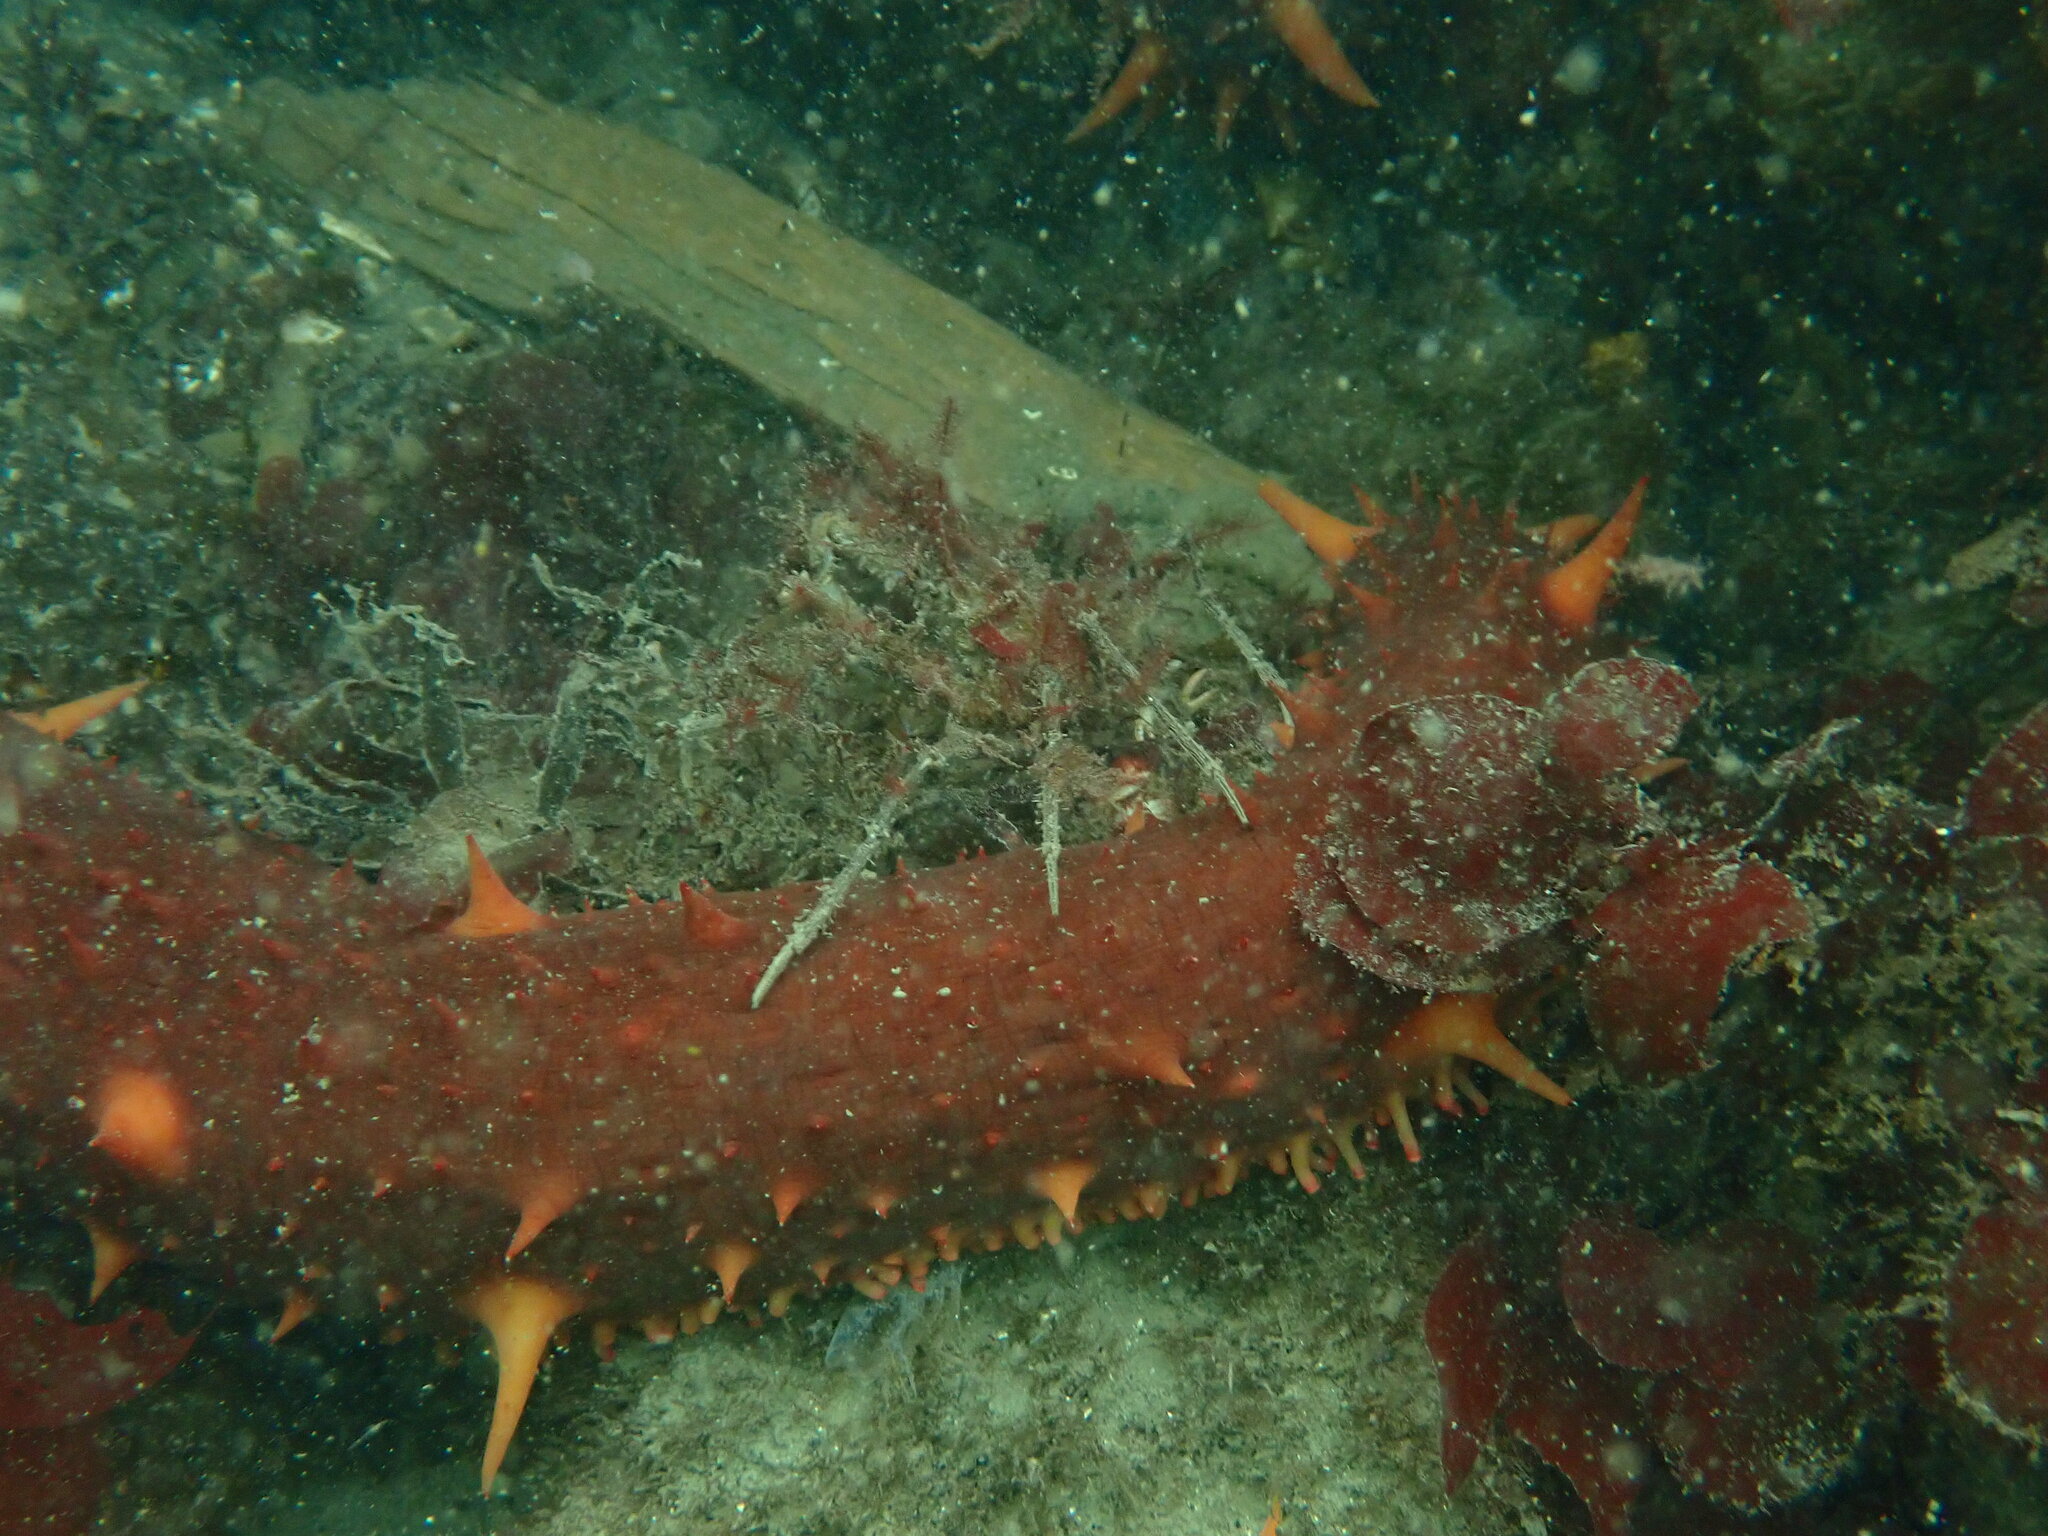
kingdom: Animalia
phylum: Echinodermata
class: Holothuroidea
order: Synallactida
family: Stichopodidae
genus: Apostichopus
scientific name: Apostichopus californicus
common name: California sea cucumber
